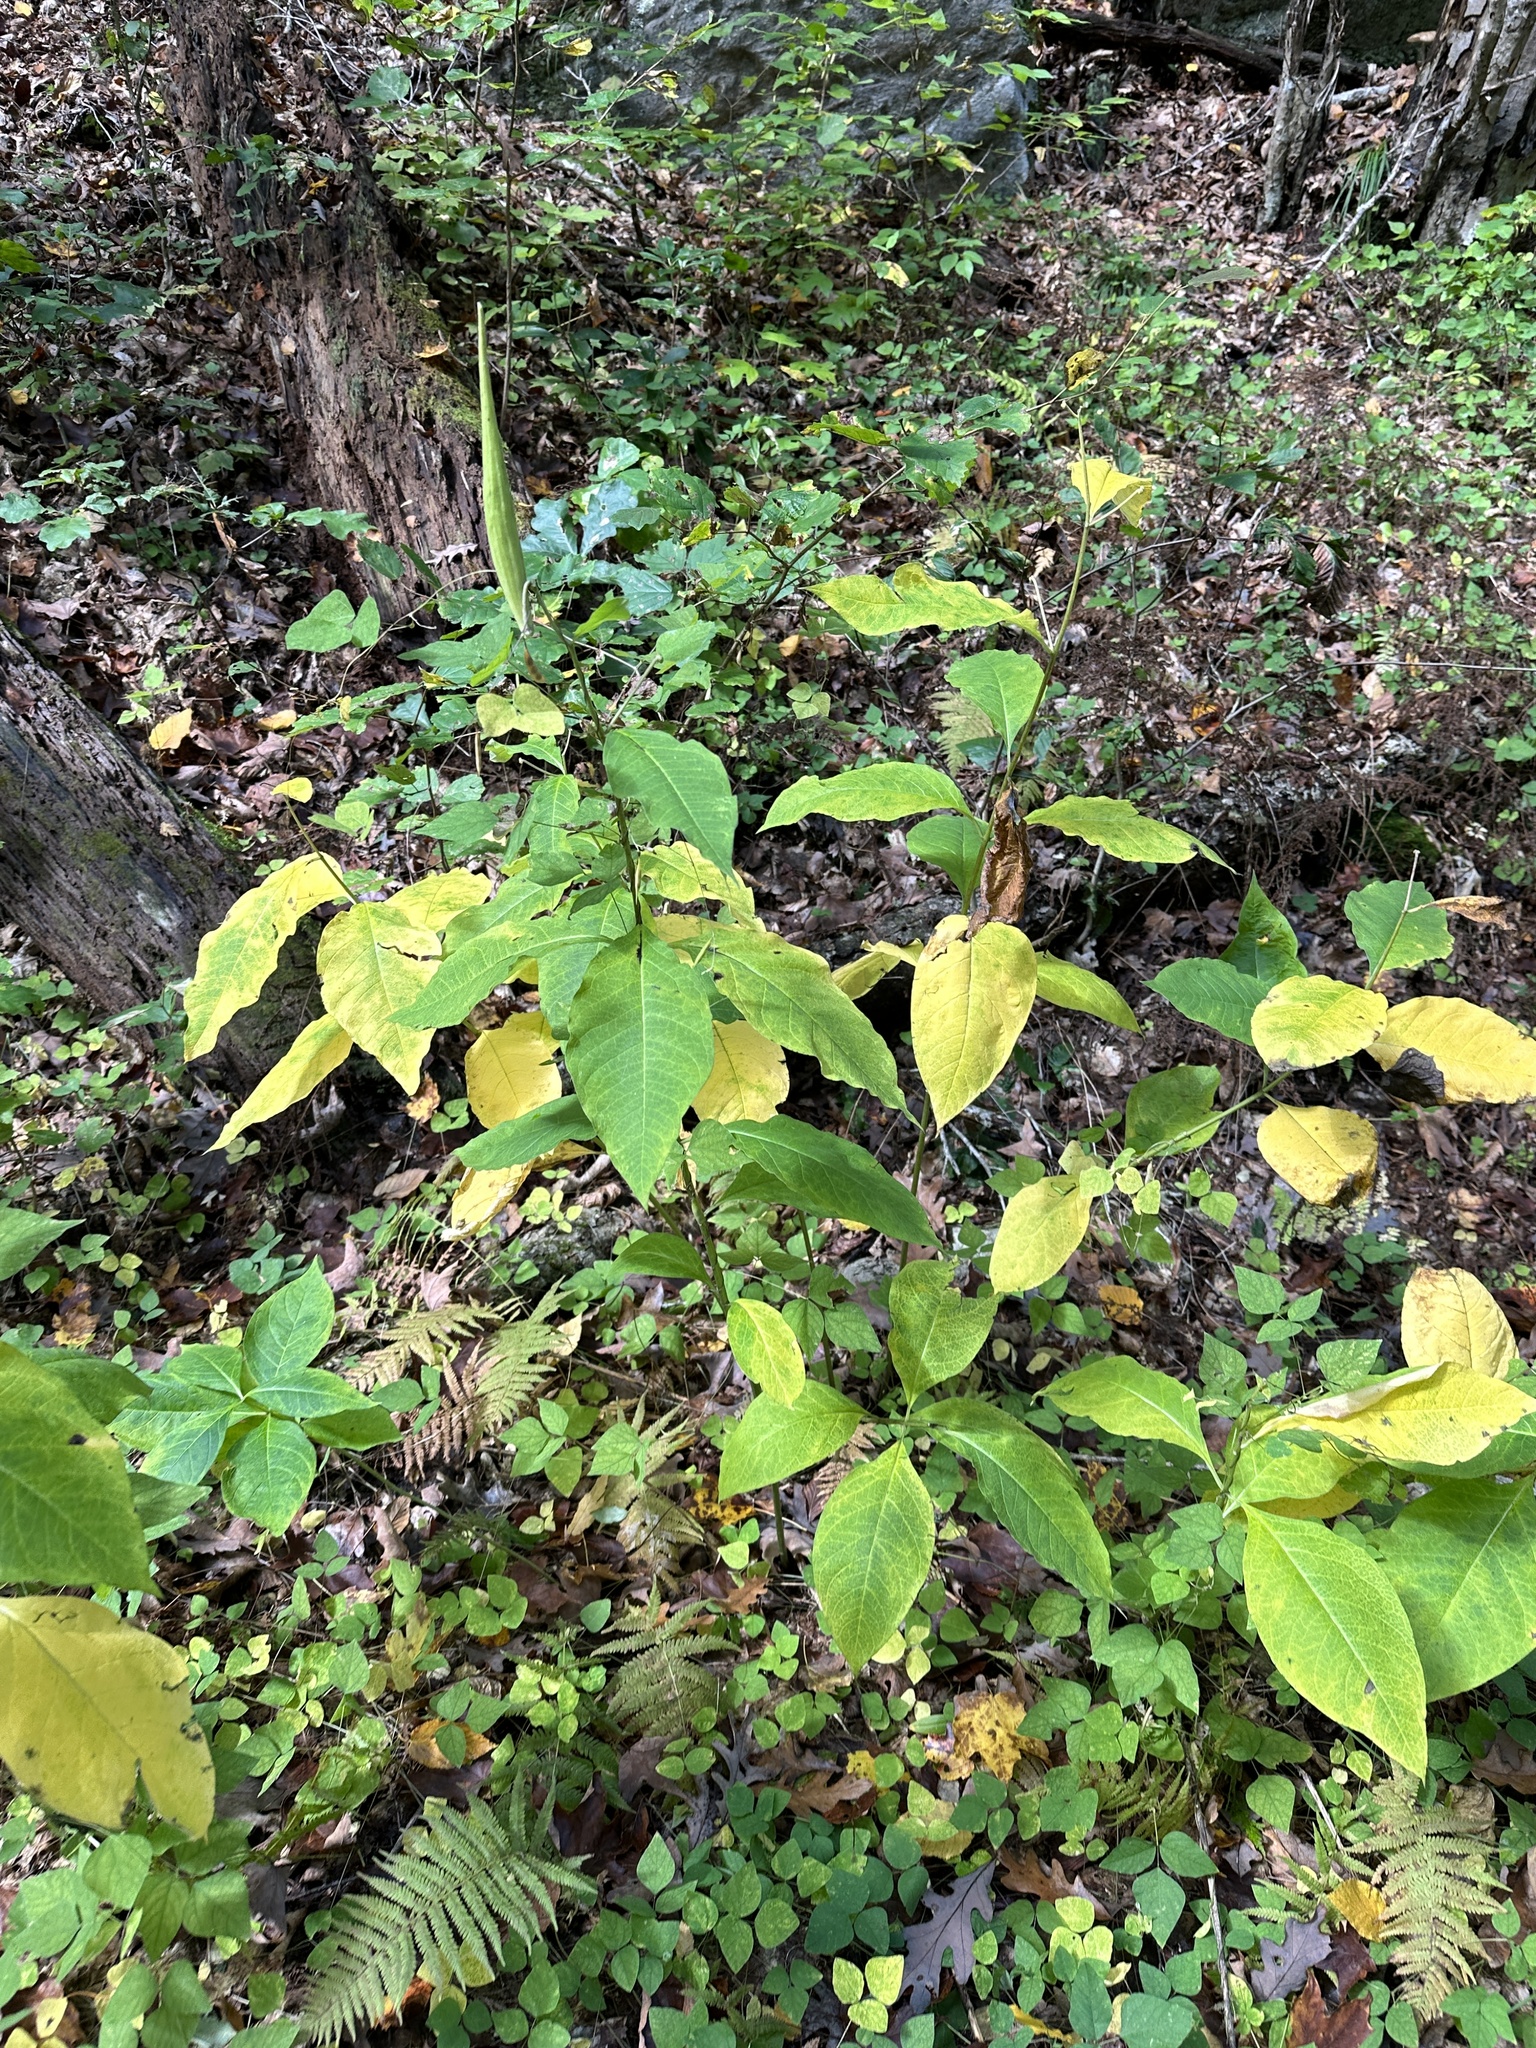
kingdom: Plantae
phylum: Tracheophyta
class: Magnoliopsida
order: Gentianales
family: Apocynaceae
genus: Asclepias
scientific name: Asclepias exaltata
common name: Poke milkweed
